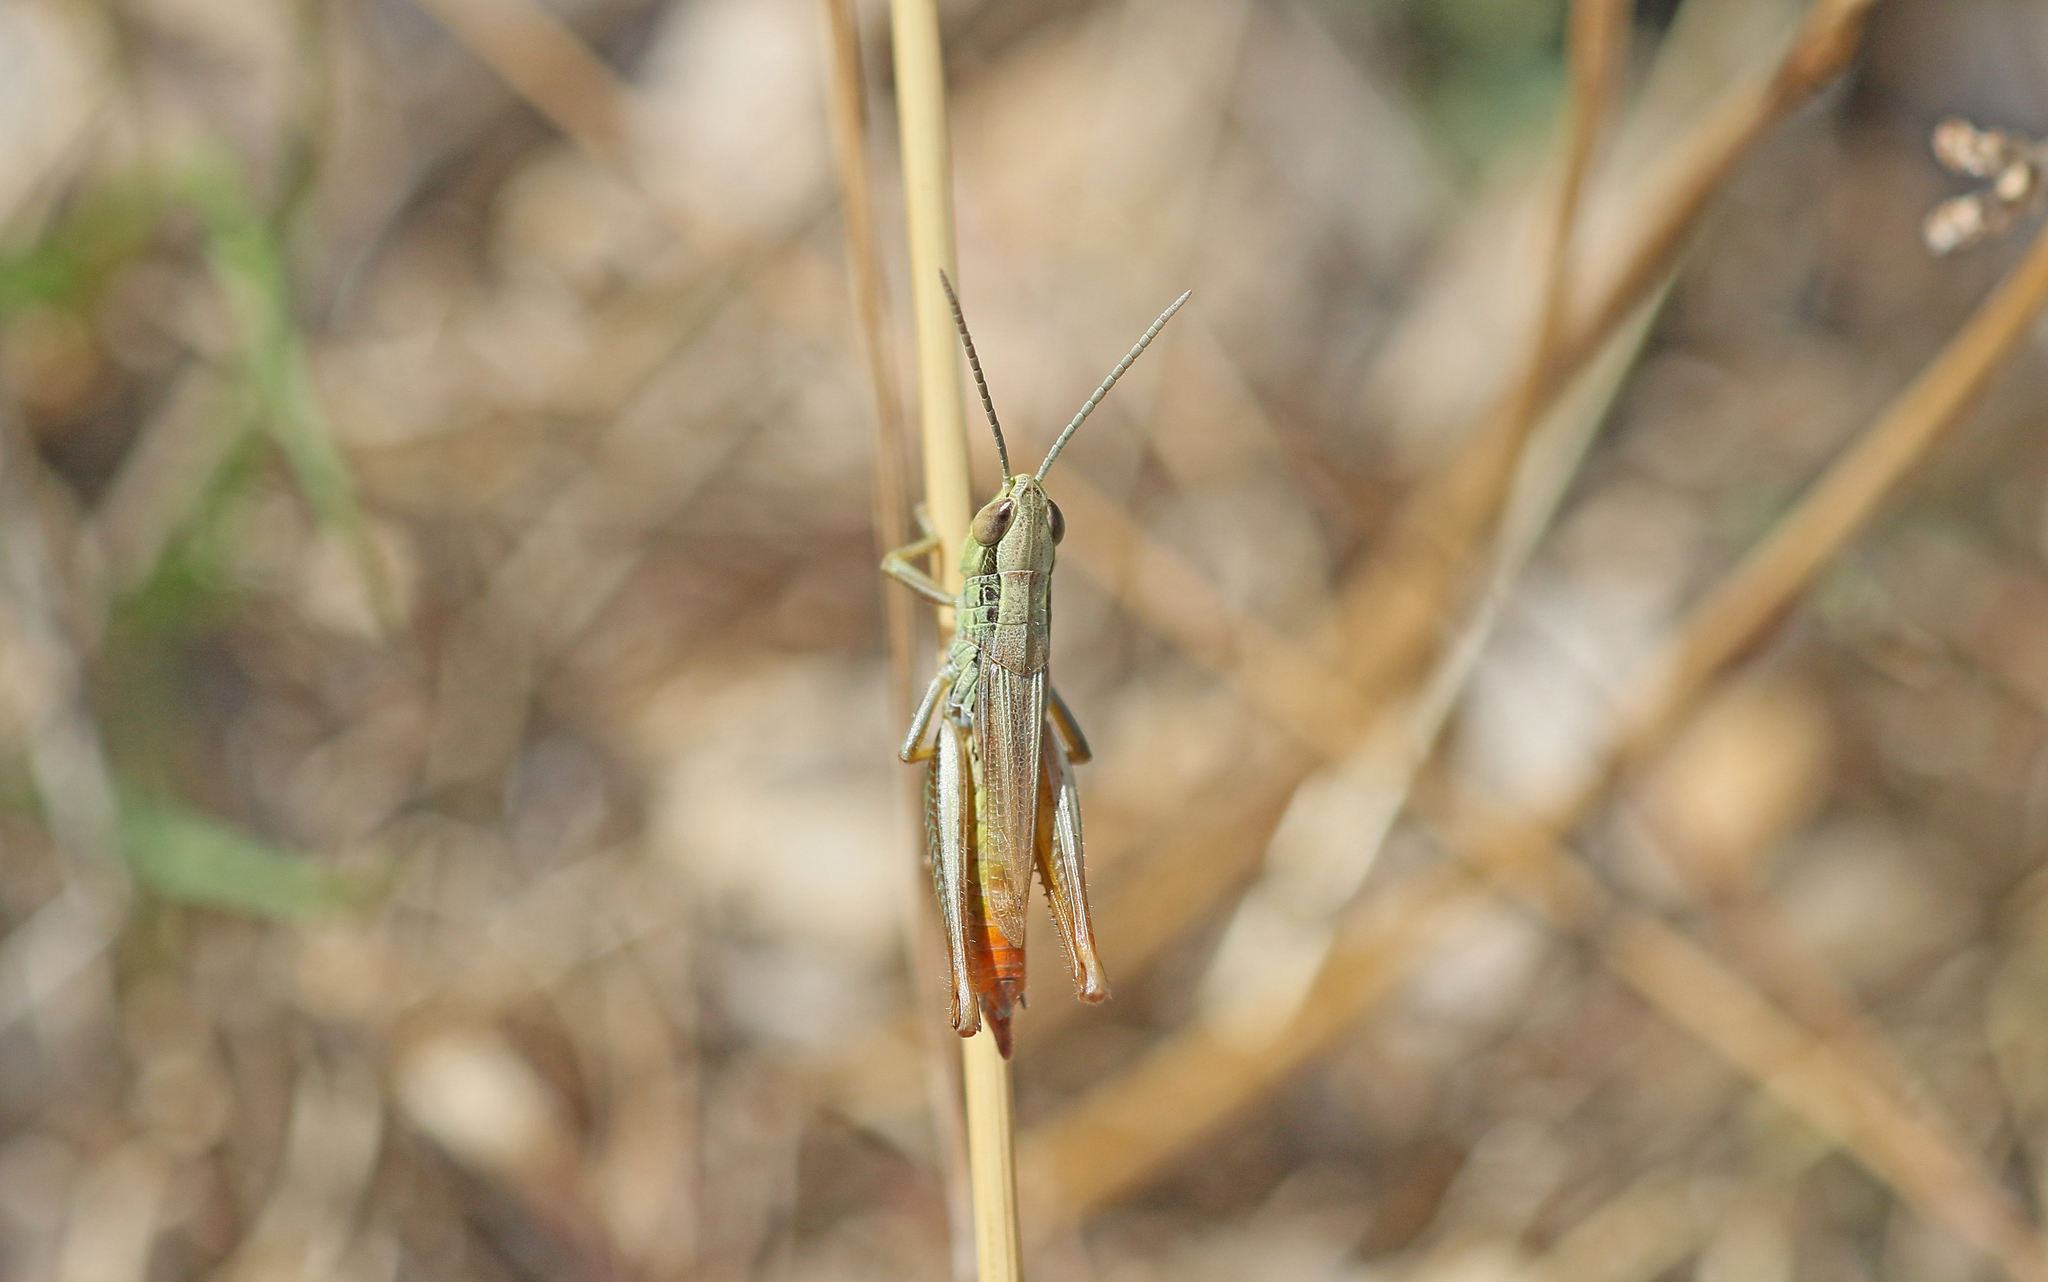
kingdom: Animalia
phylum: Arthropoda
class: Insecta
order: Orthoptera
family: Acrididae
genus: Euchorthippus
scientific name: Euchorthippus declivus
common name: Common straw grasshopper
